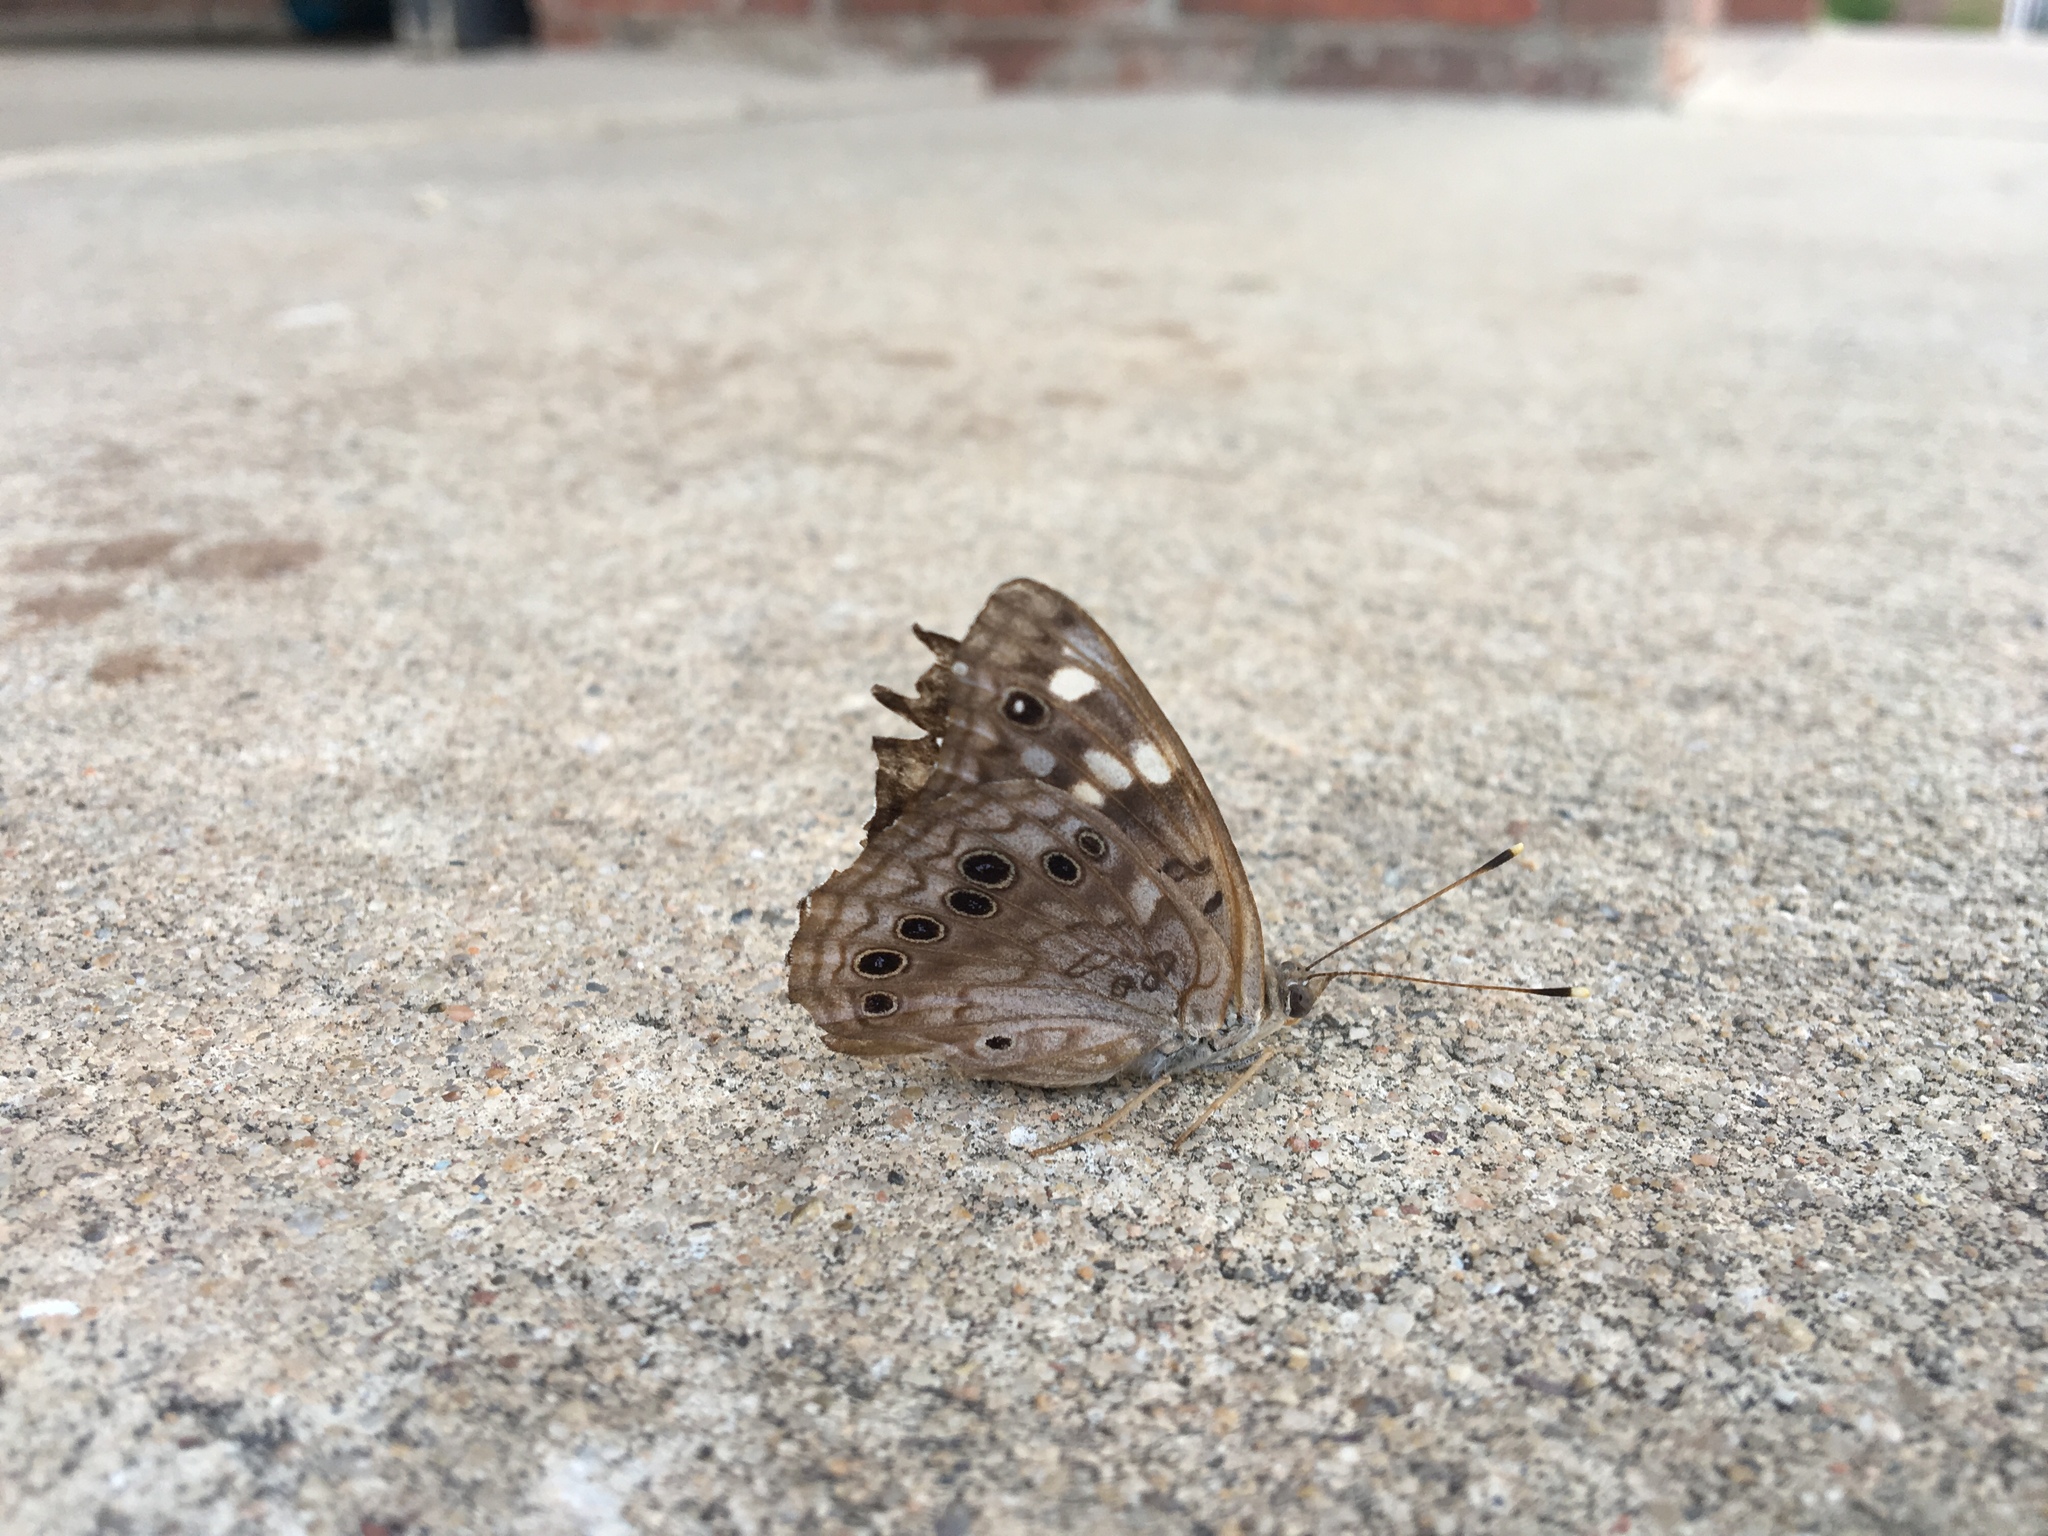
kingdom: Animalia
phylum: Arthropoda
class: Insecta
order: Lepidoptera
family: Nymphalidae
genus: Asterocampa
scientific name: Asterocampa celtis
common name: Hackberry emperor
